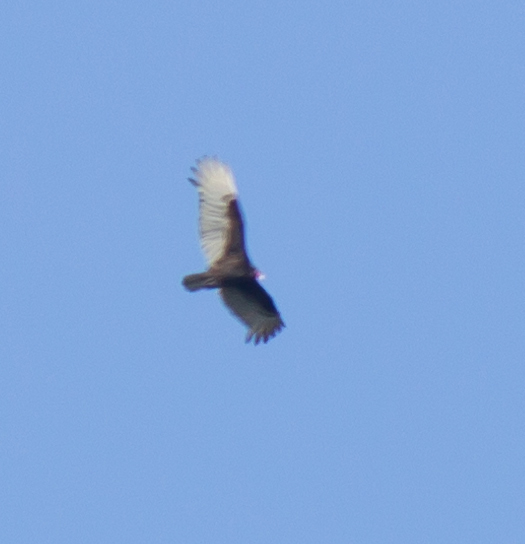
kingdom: Animalia
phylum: Chordata
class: Aves
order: Accipitriformes
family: Cathartidae
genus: Cathartes
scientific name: Cathartes aura
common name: Turkey vulture
